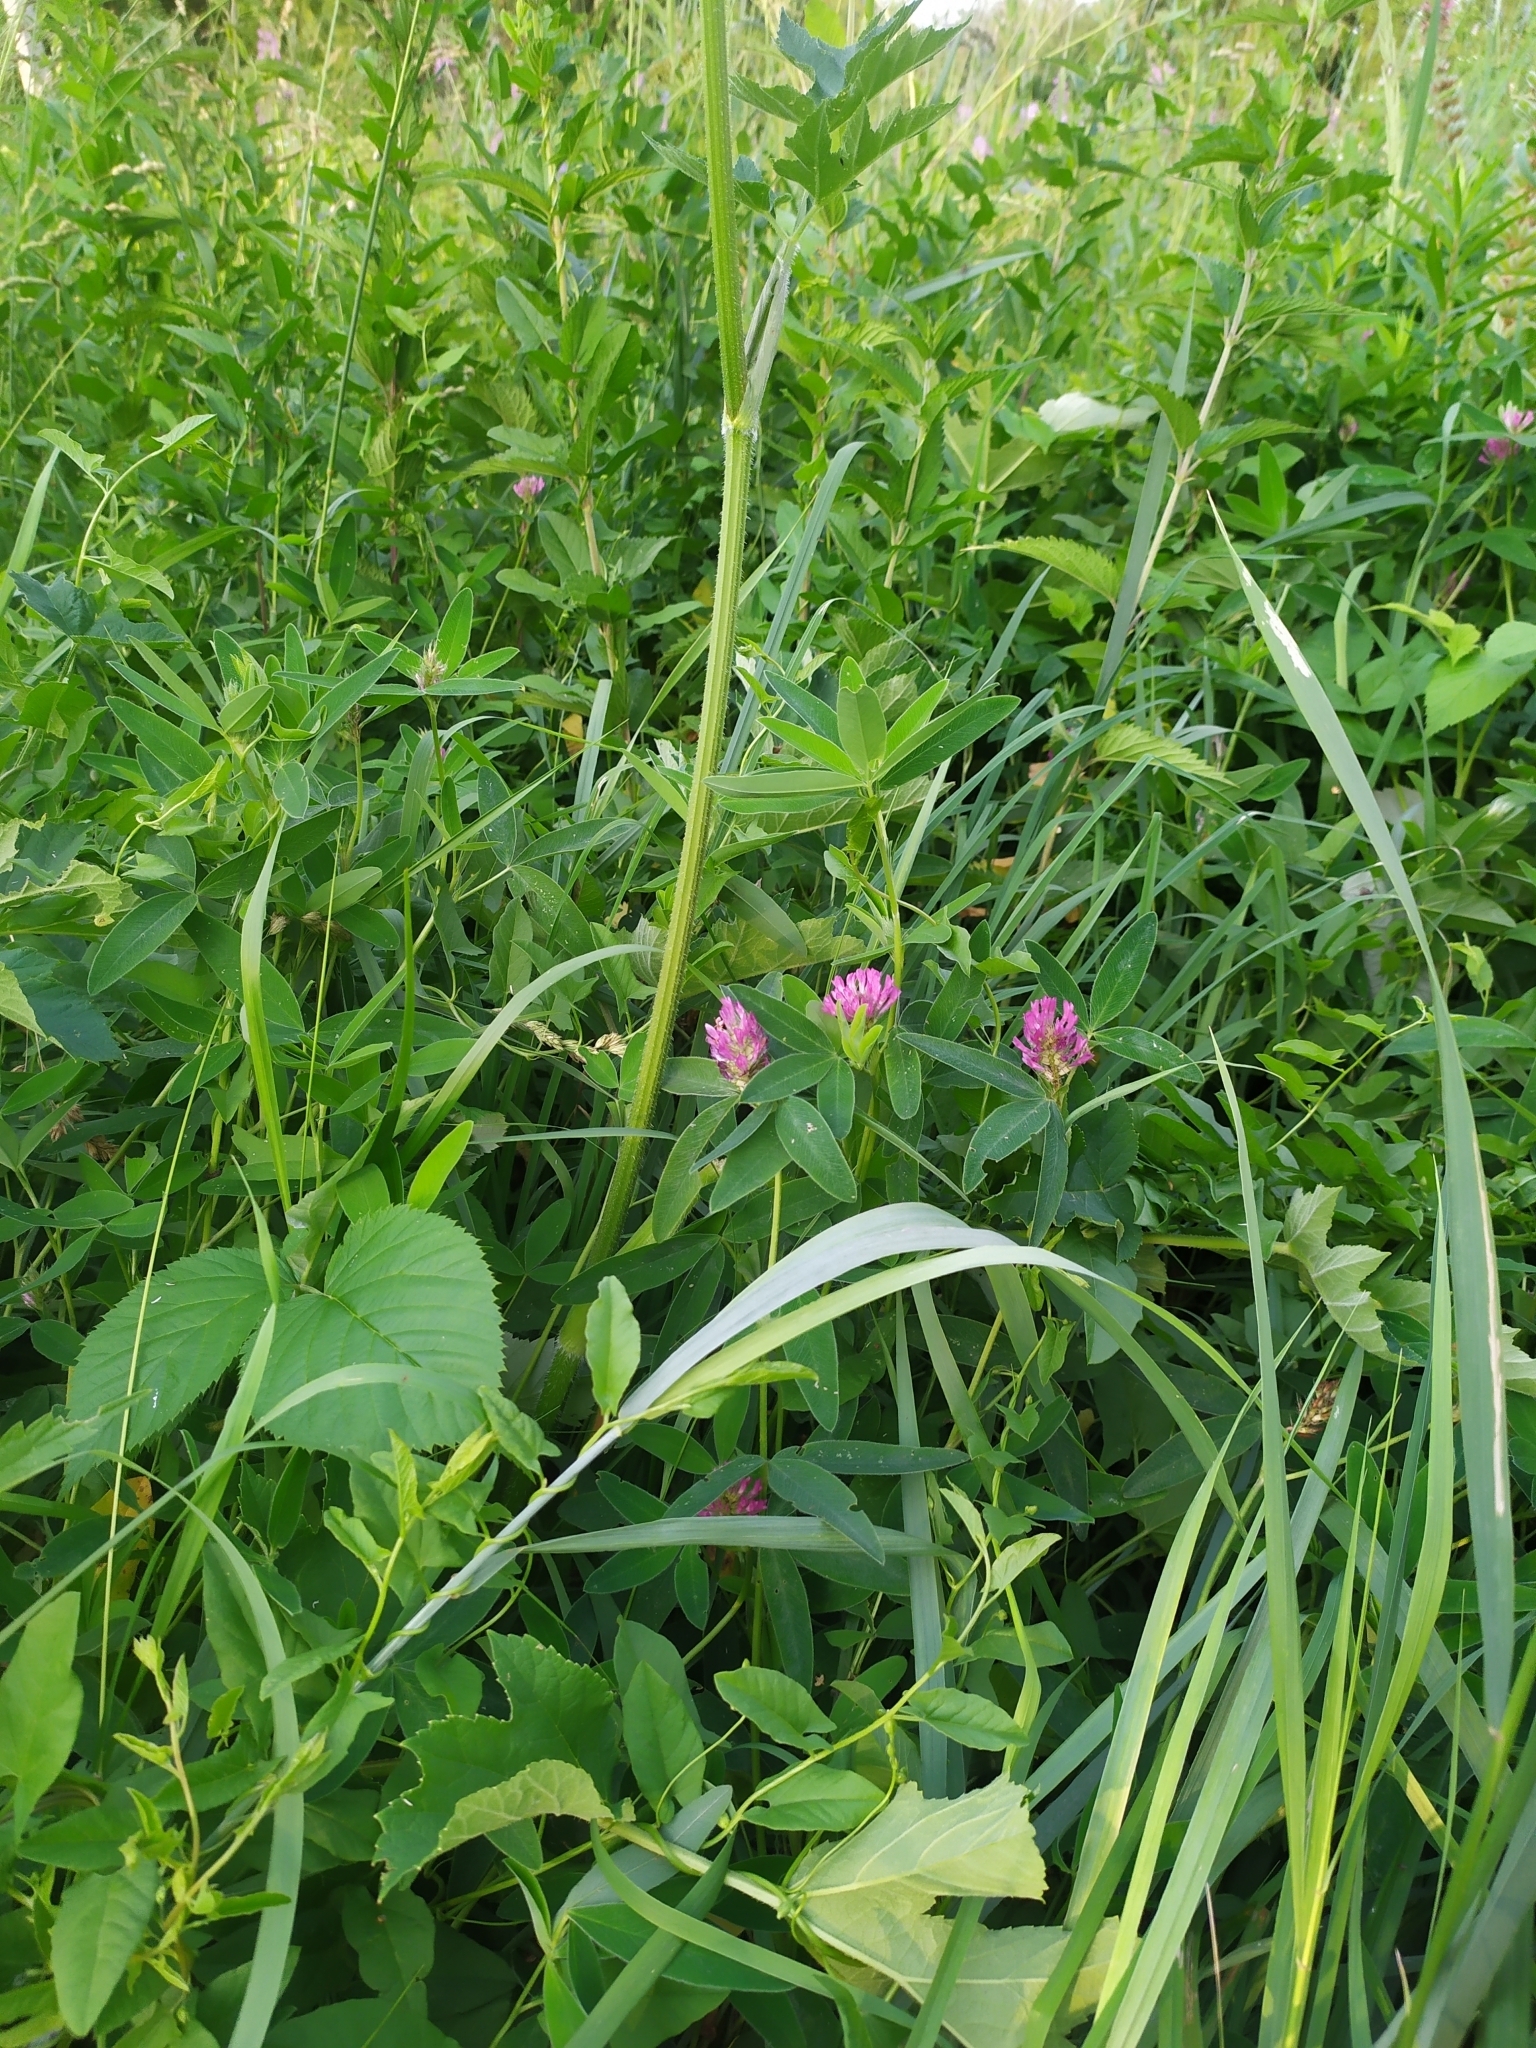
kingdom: Plantae
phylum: Tracheophyta
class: Magnoliopsida
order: Fabales
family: Fabaceae
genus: Trifolium
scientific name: Trifolium medium
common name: Zigzag clover
